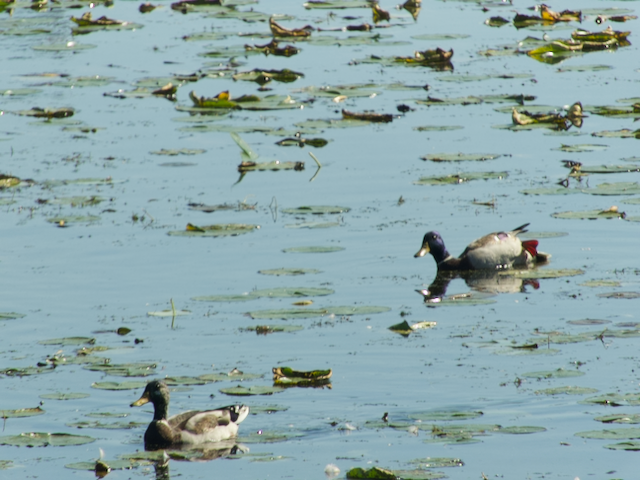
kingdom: Animalia
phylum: Chordata
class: Aves
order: Anseriformes
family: Anatidae
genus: Anas
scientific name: Anas platyrhynchos
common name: Mallard
